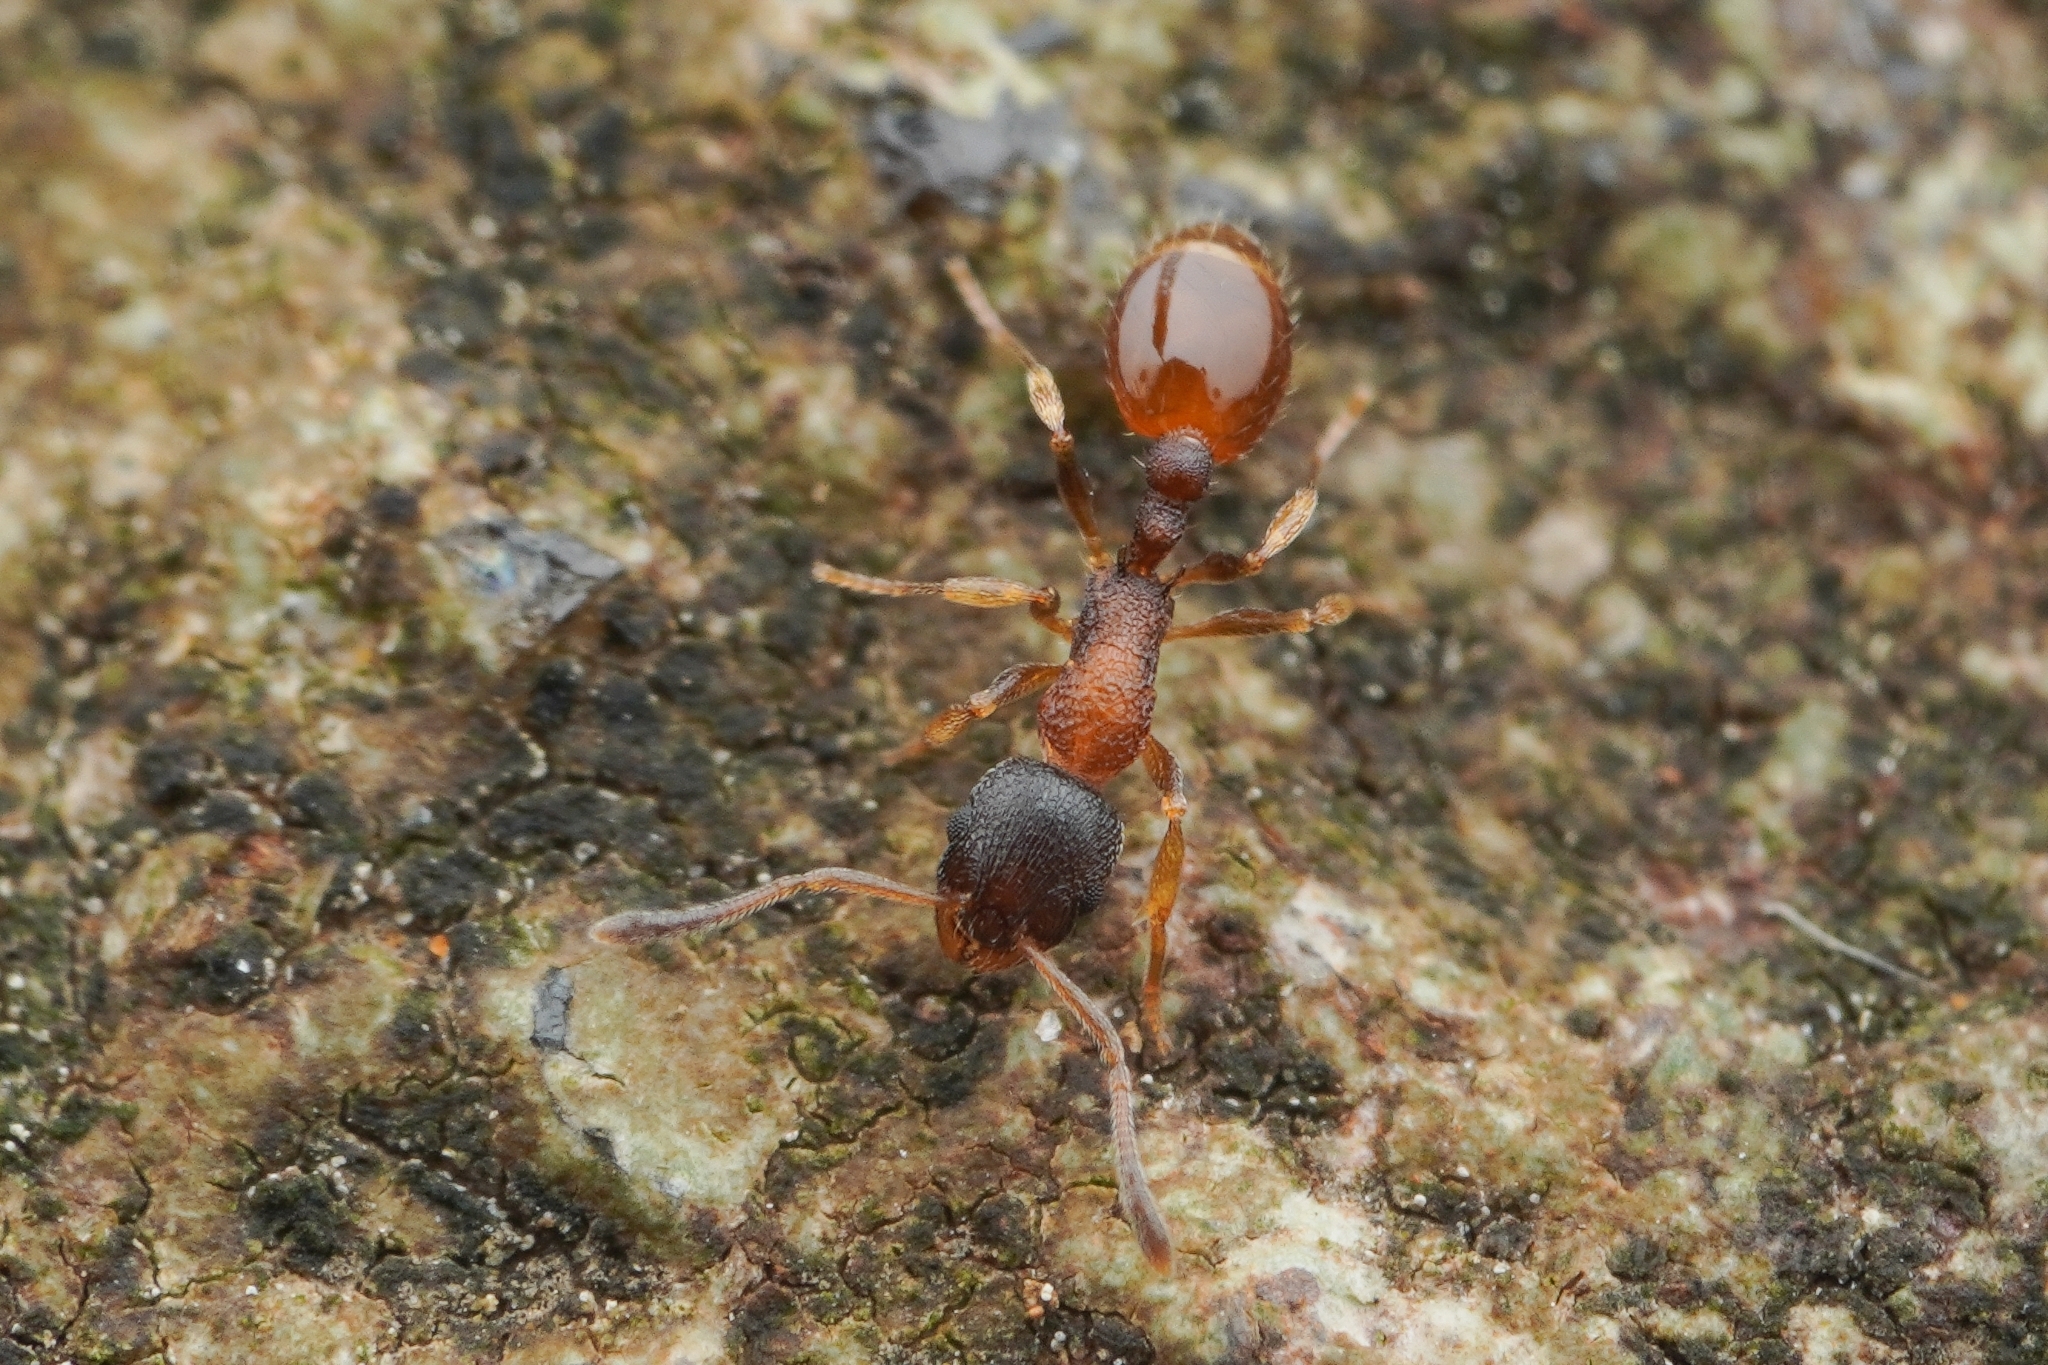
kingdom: Animalia
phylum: Arthropoda
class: Insecta
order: Hymenoptera
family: Formicidae
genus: Temnothorax
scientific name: Temnothorax
